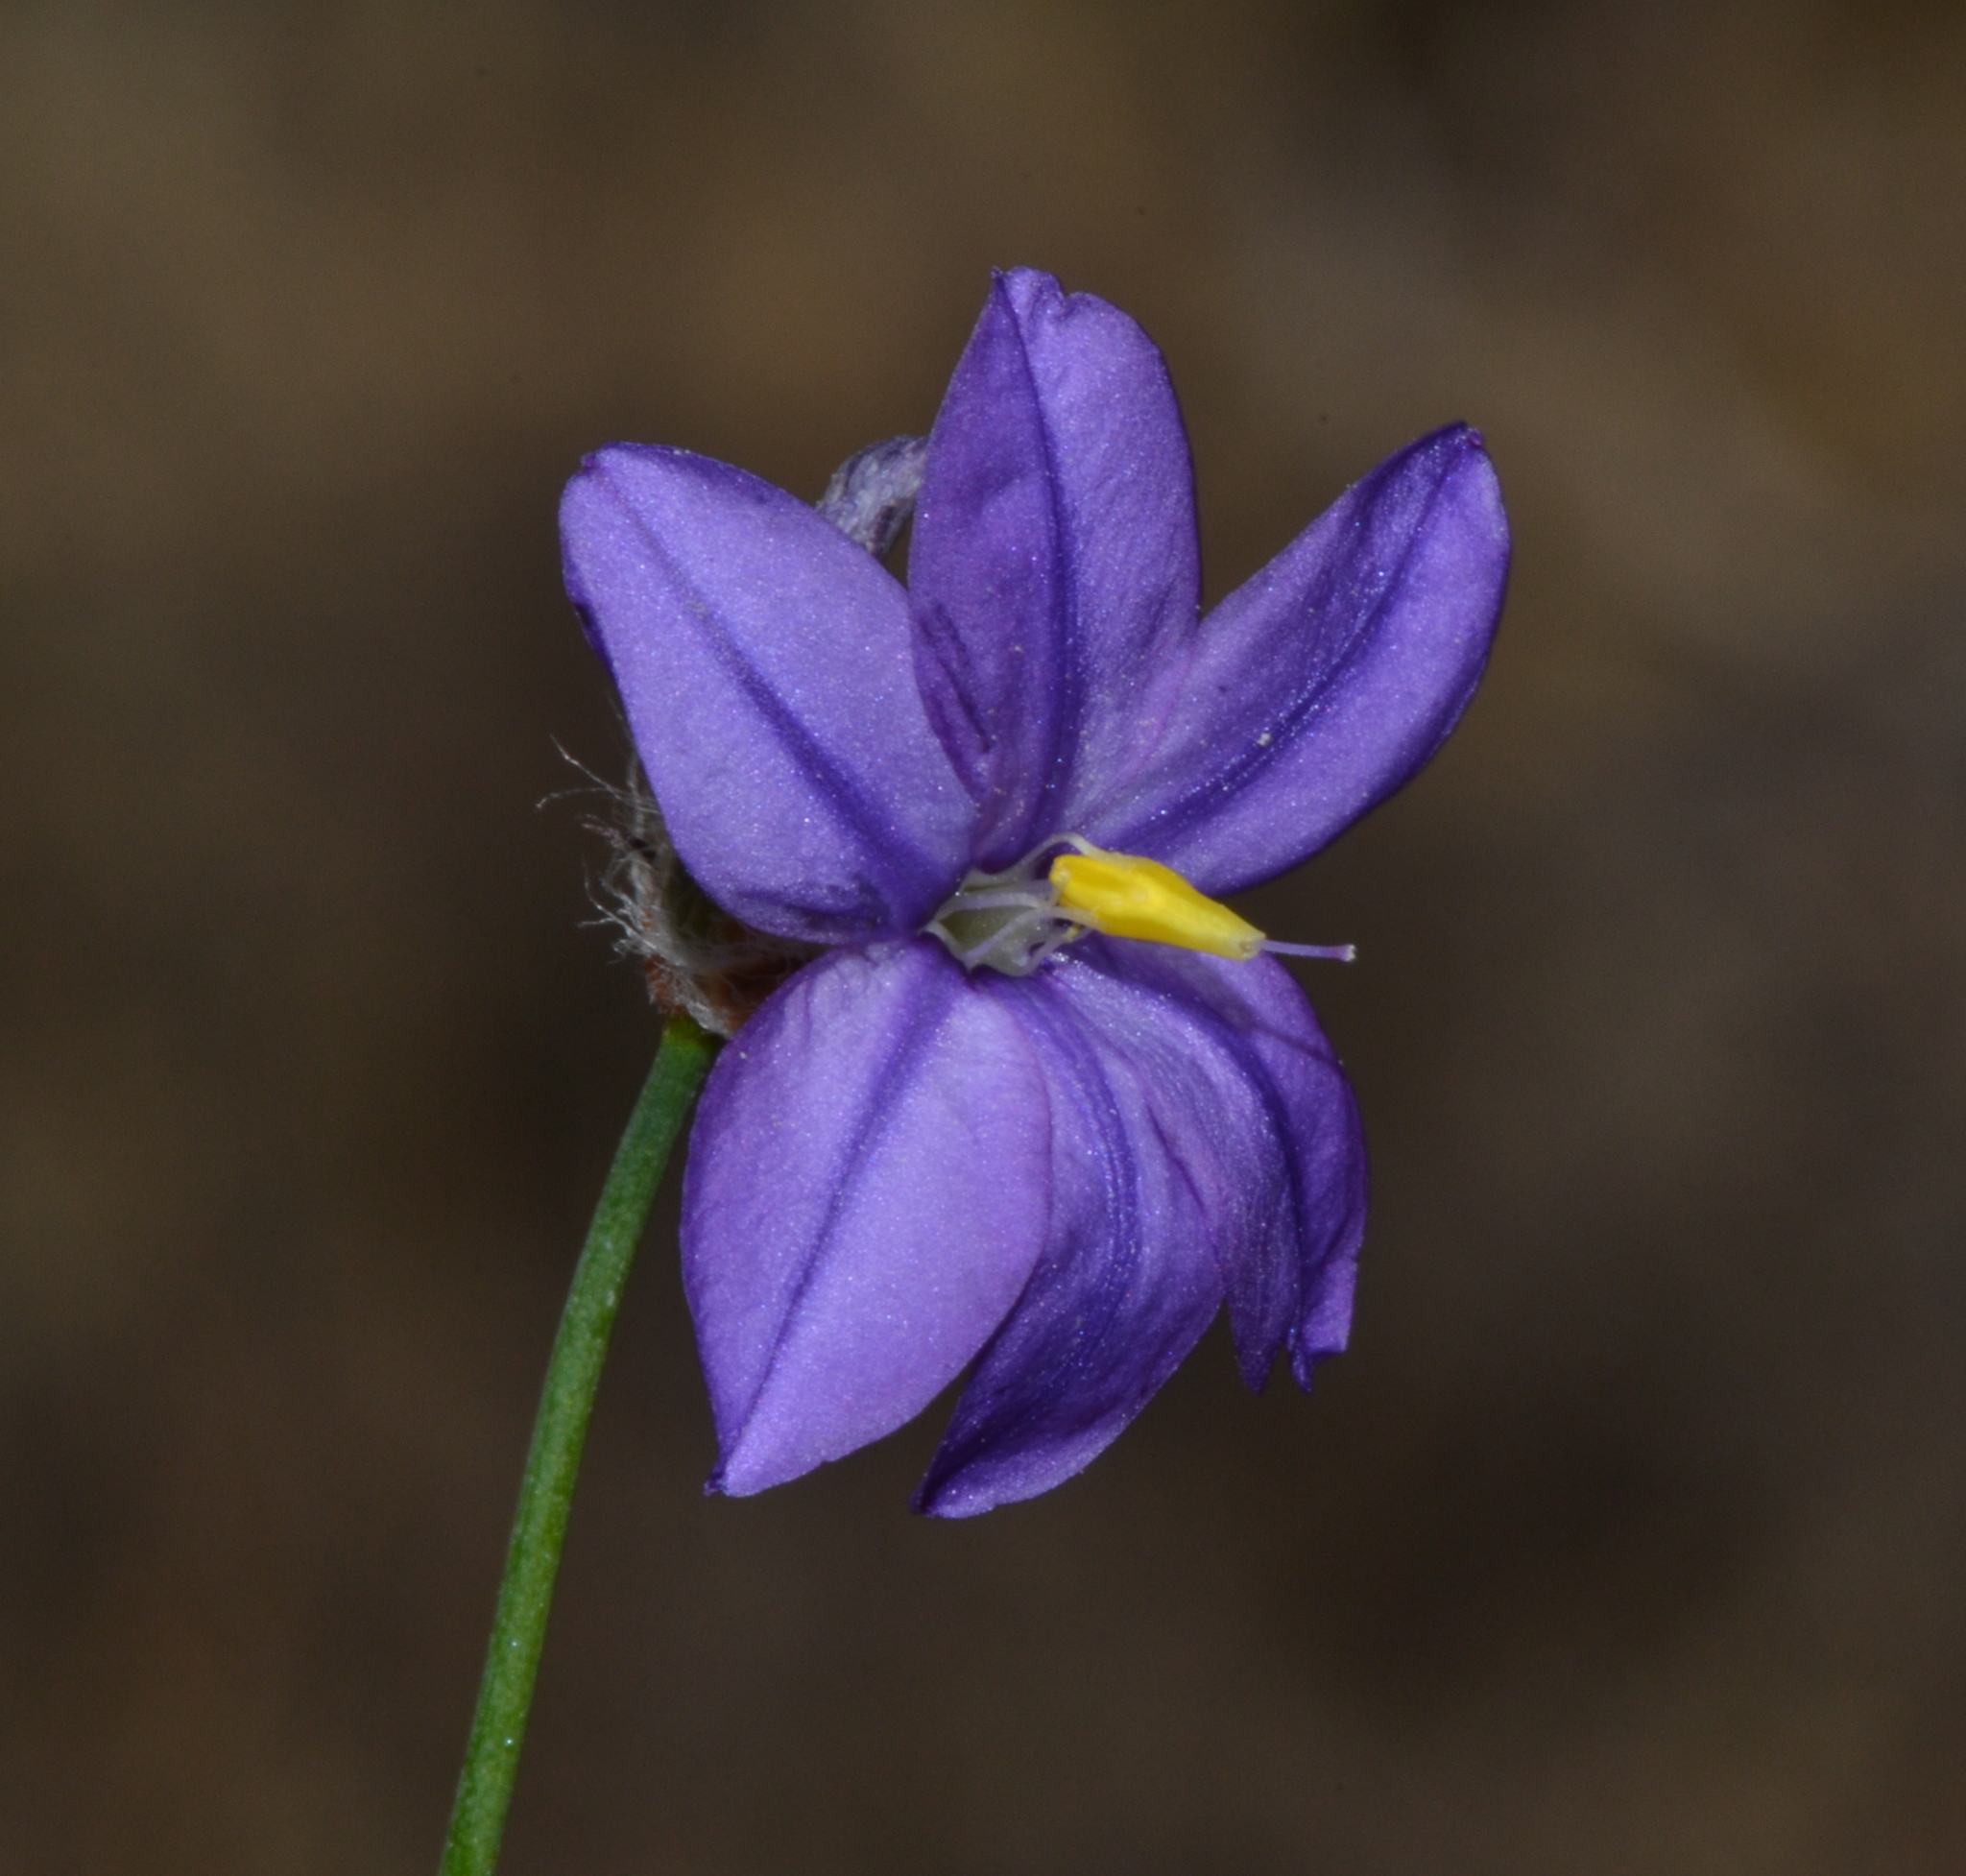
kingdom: Plantae
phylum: Tracheophyta
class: Liliopsida
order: Asparagales
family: Asphodelaceae
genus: Arnocrinum
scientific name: Arnocrinum preisii
